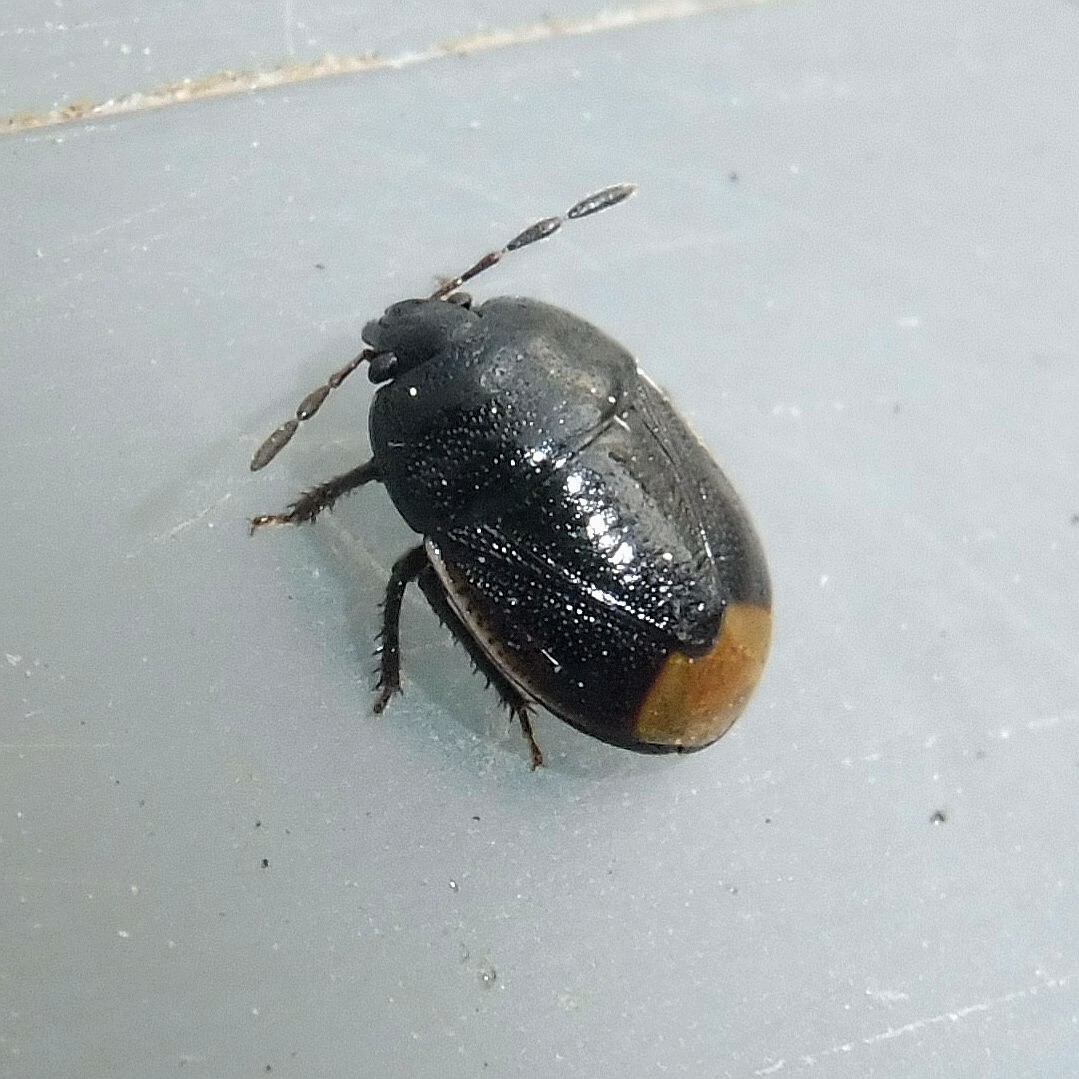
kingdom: Animalia
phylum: Arthropoda
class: Insecta
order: Hemiptera
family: Cydnidae
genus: Legnotus
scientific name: Legnotus limbosus
